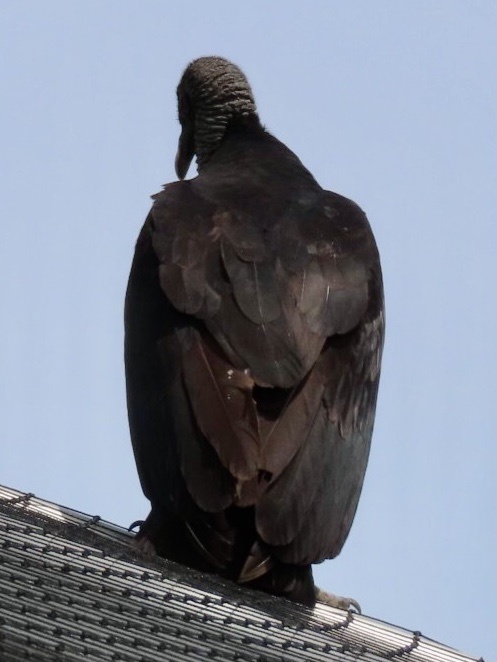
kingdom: Animalia
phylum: Chordata
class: Aves
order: Accipitriformes
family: Cathartidae
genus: Coragyps
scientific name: Coragyps atratus
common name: Black vulture
